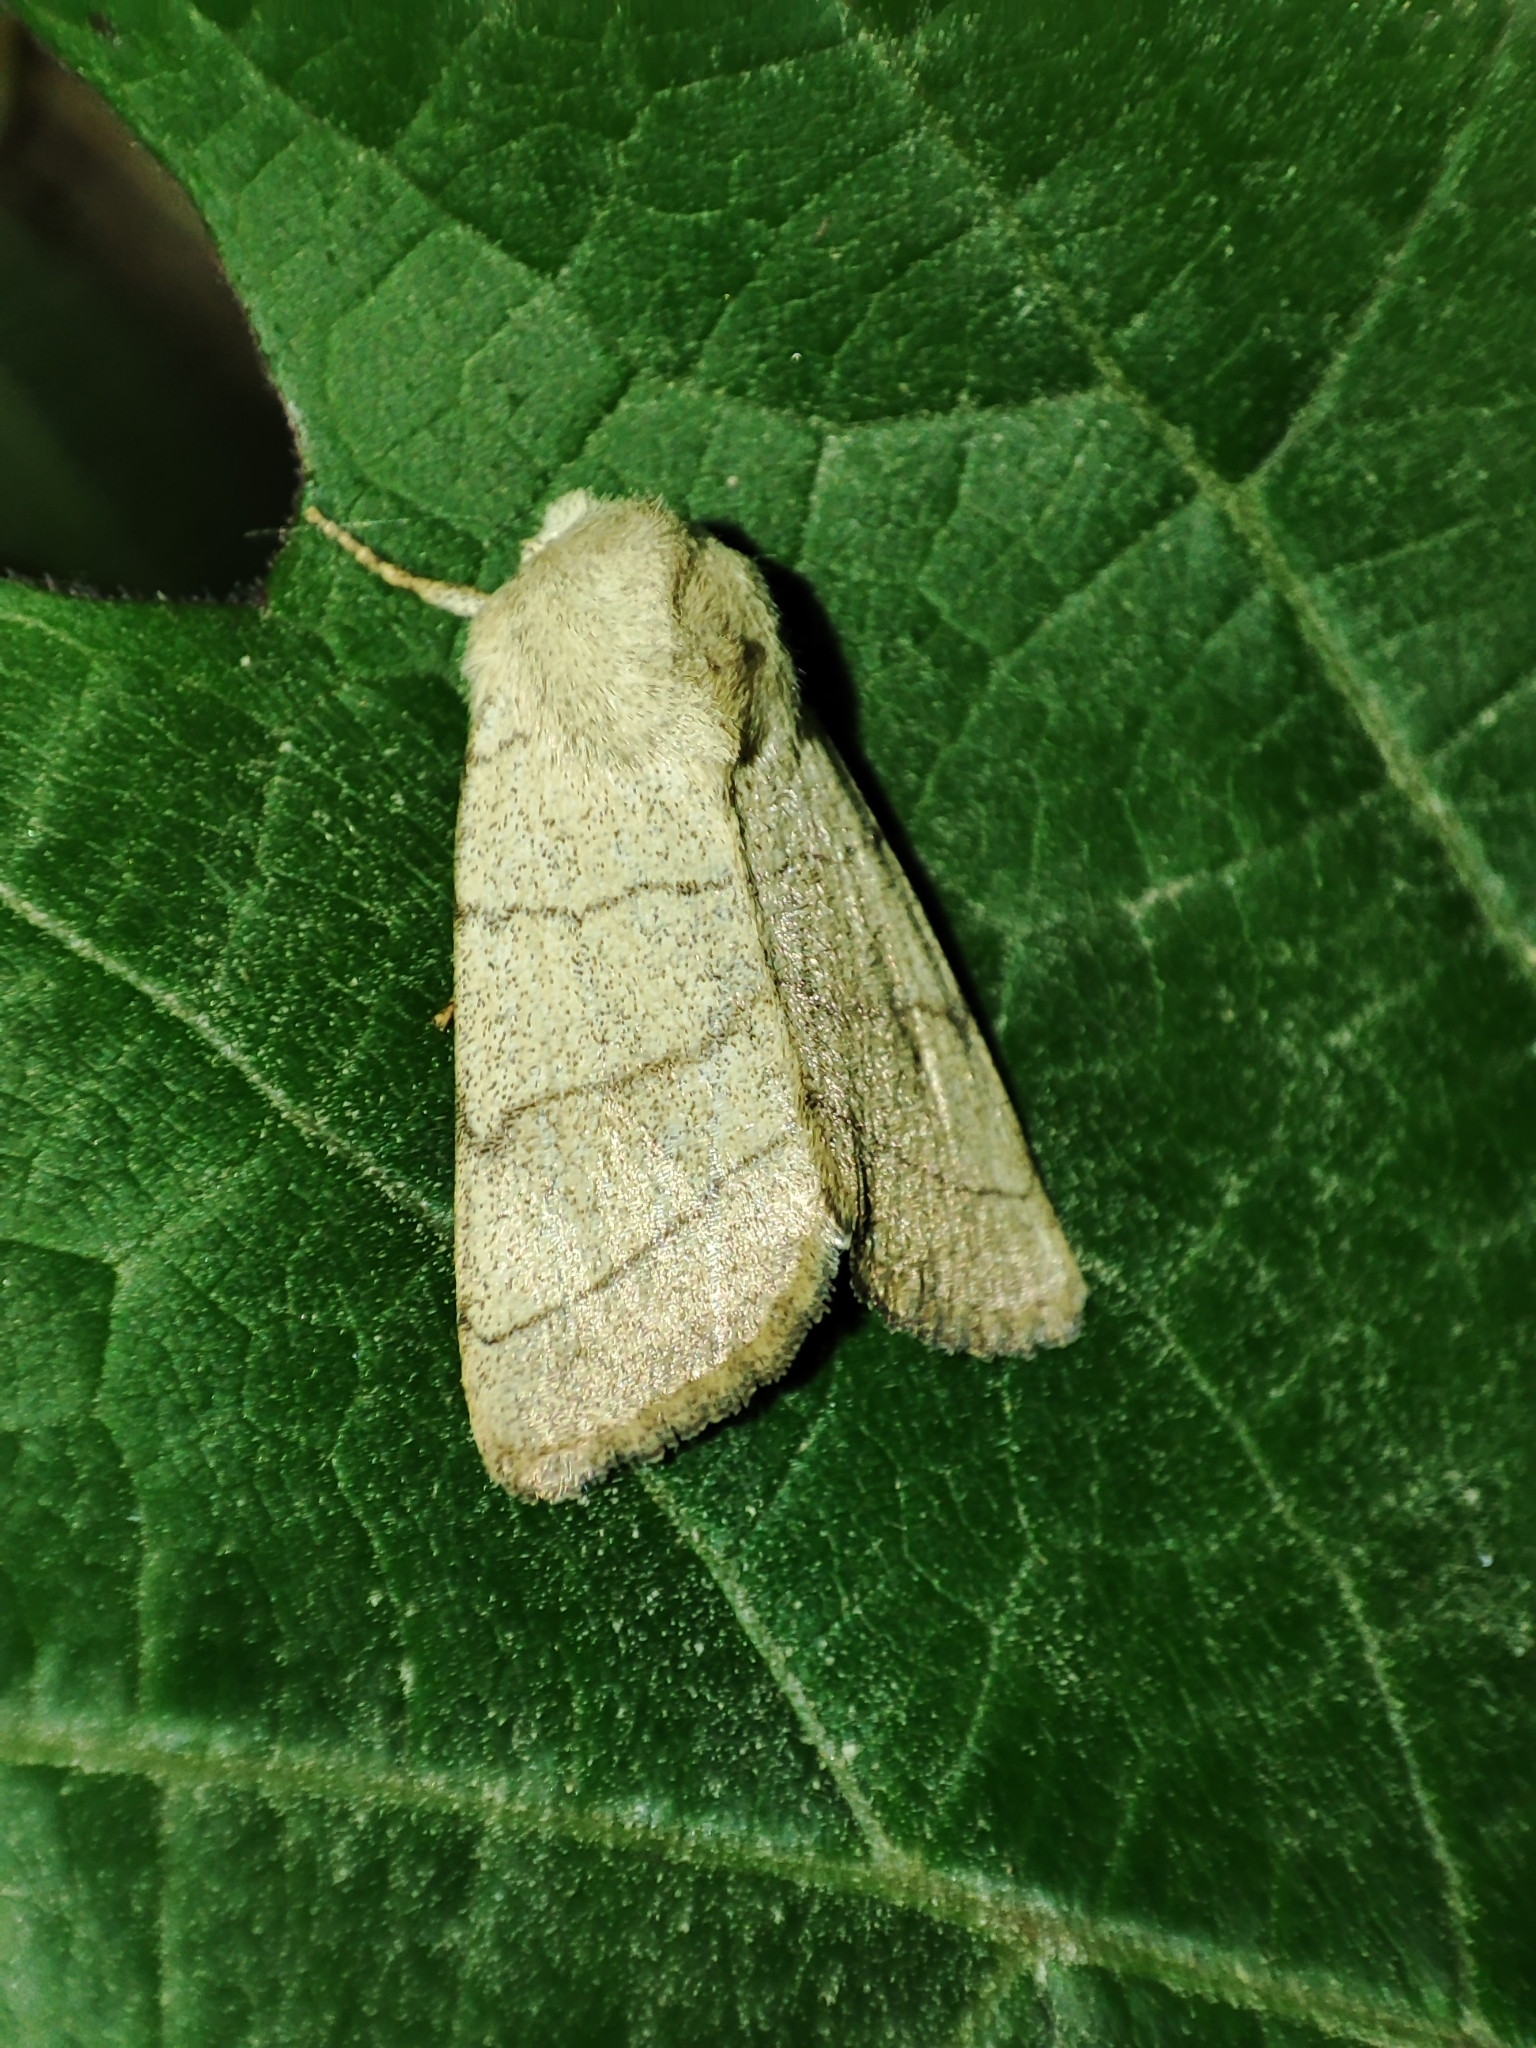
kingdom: Animalia
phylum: Arthropoda
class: Insecta
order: Lepidoptera
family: Noctuidae
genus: Charanyca
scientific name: Charanyca trigrammica
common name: Treble lines
